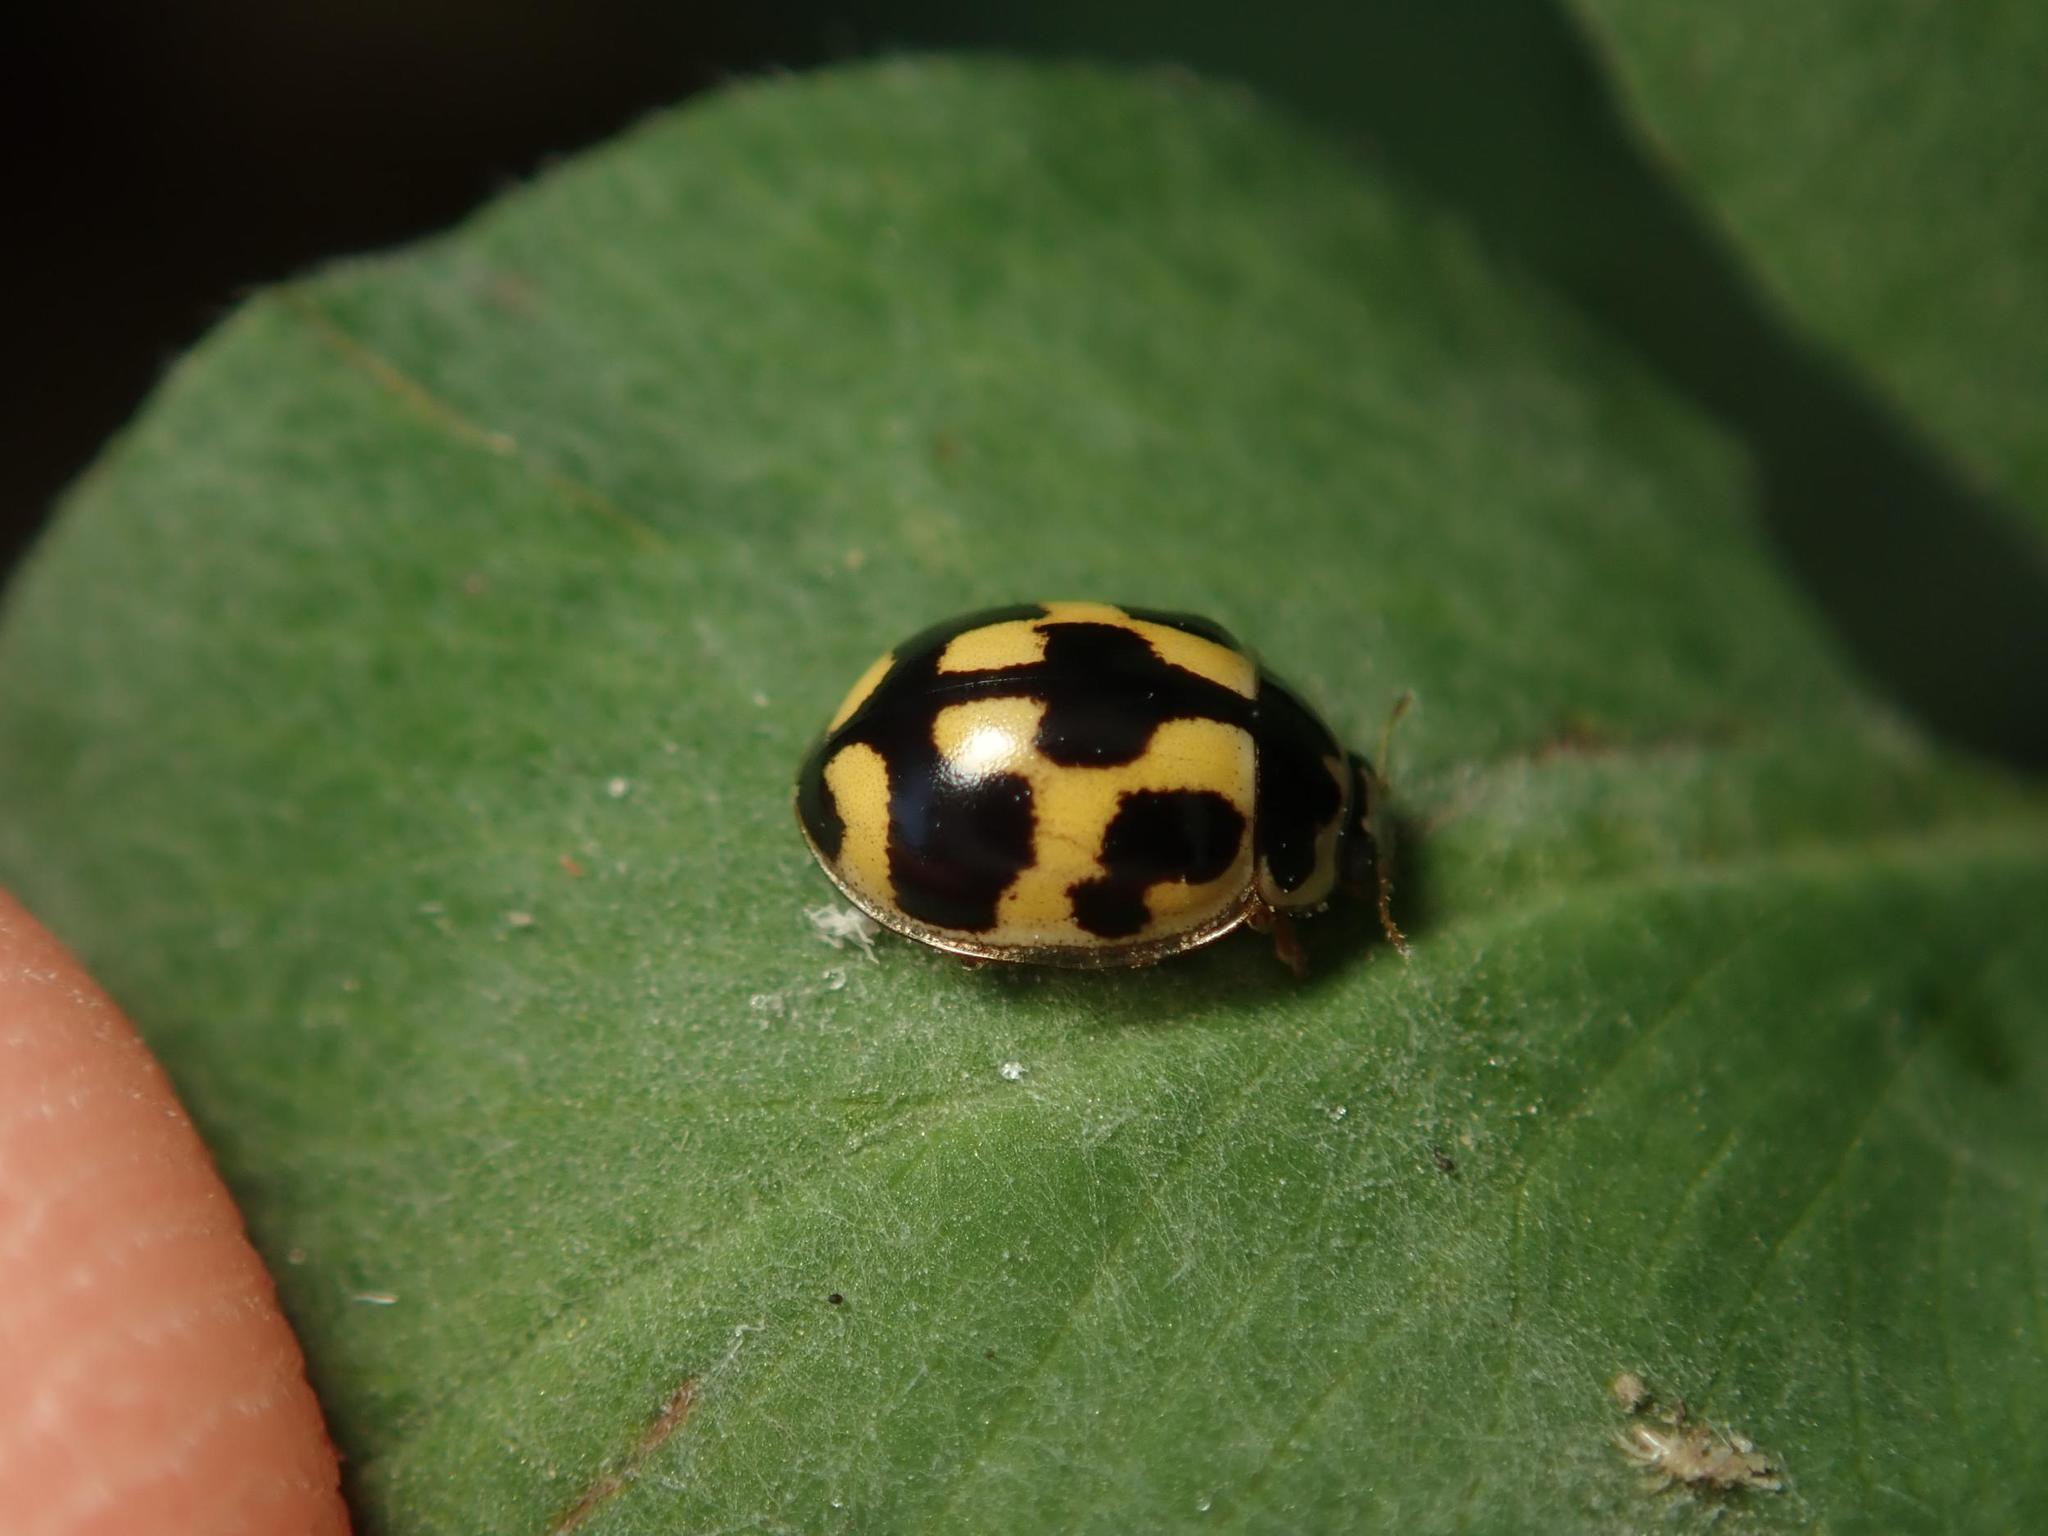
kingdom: Animalia
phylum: Arthropoda
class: Insecta
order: Coleoptera
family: Coccinellidae
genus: Propylaea
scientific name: Propylaea quatuordecimpunctata
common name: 14-spotted ladybird beetle
